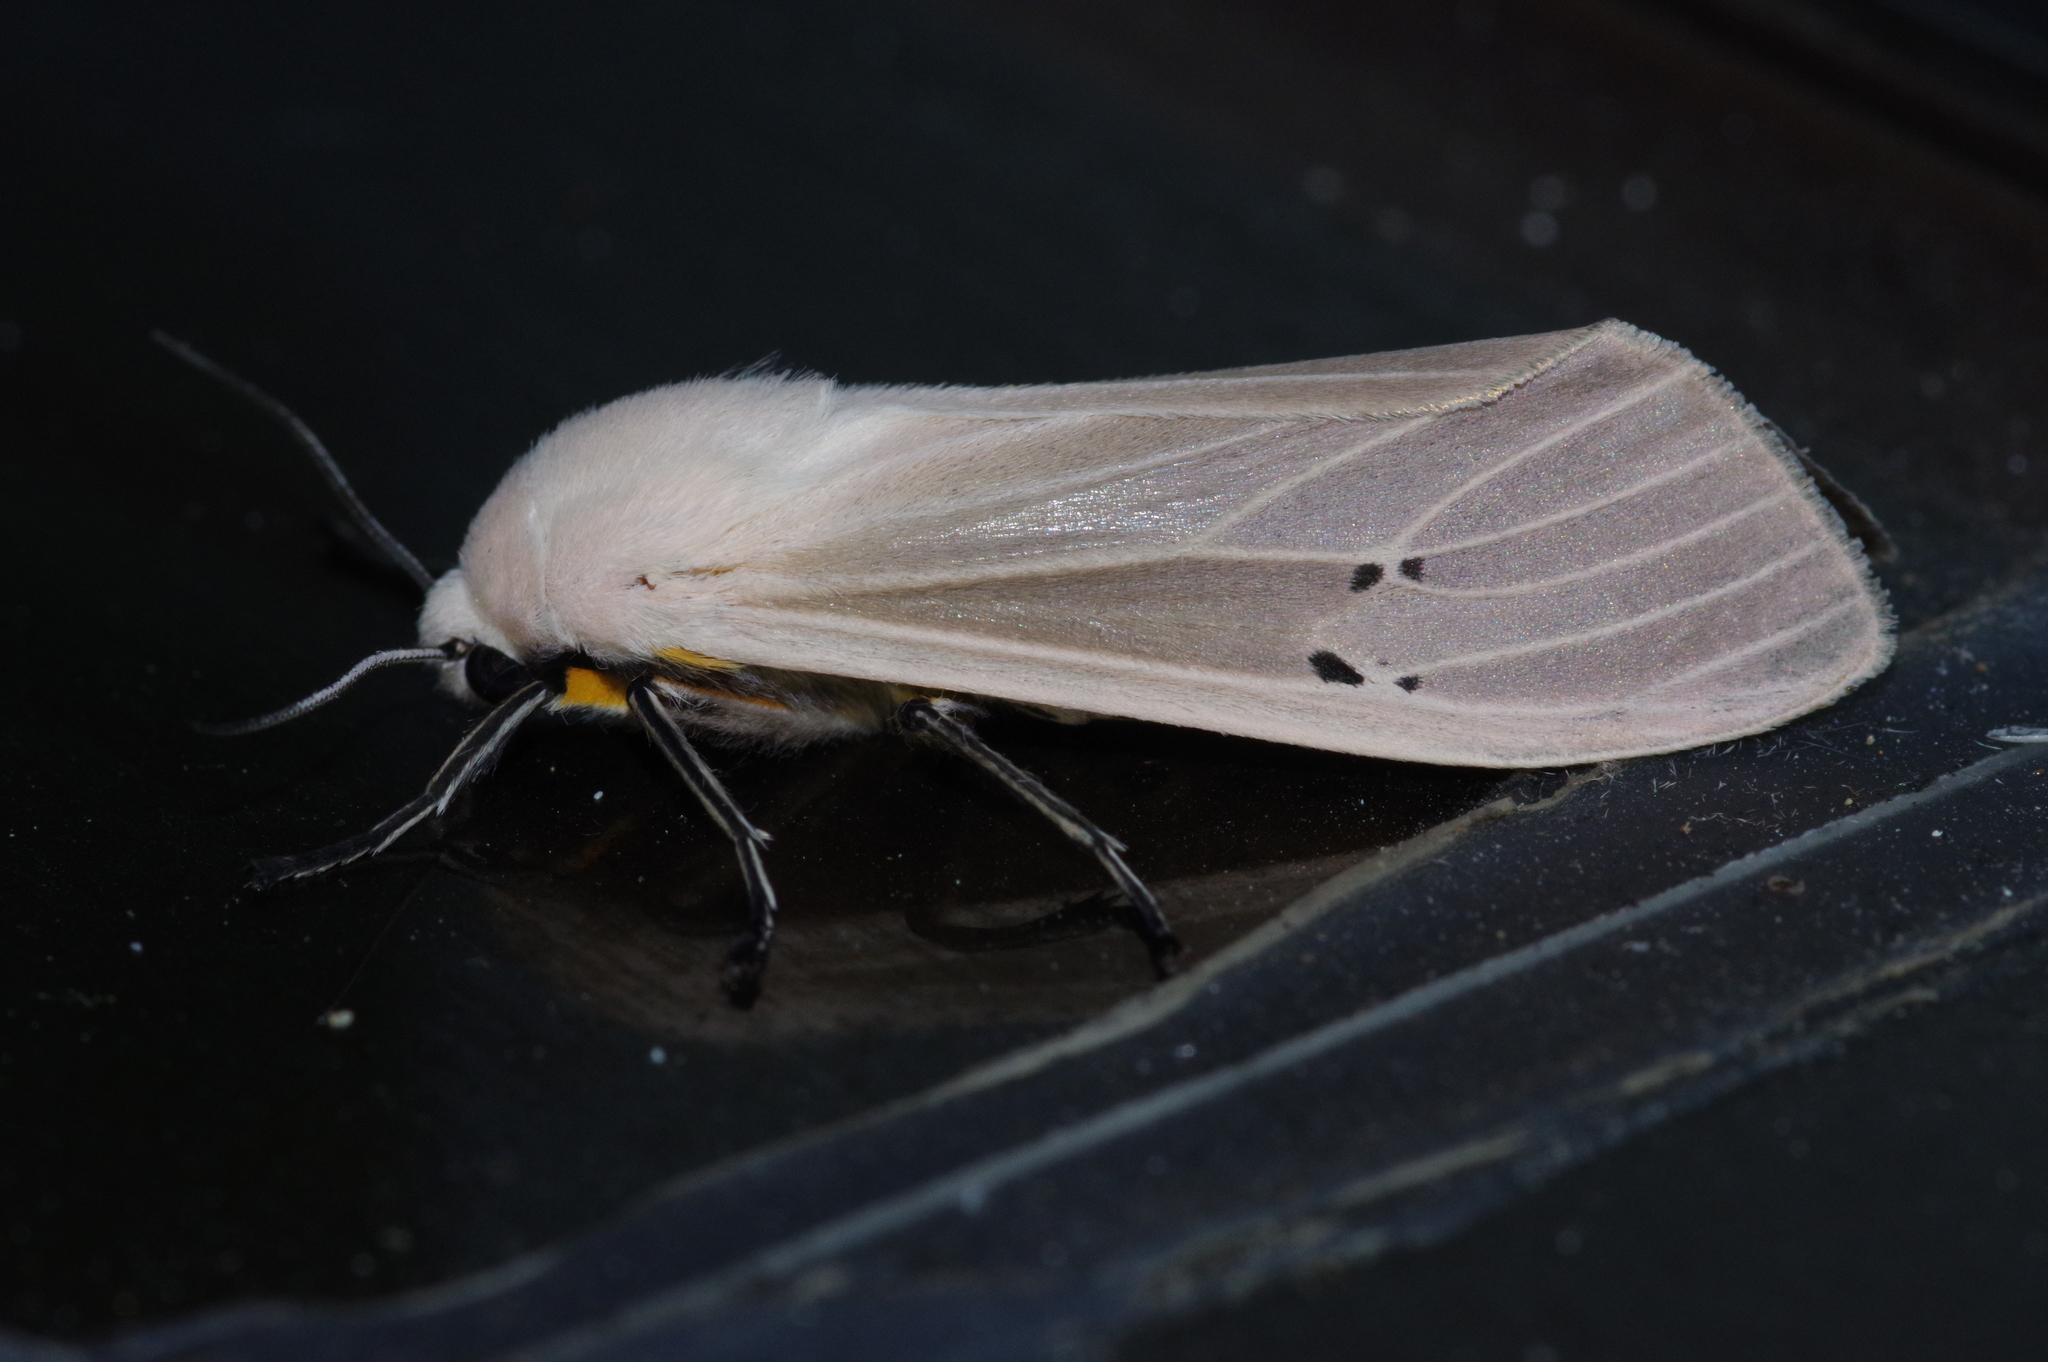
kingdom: Animalia
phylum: Arthropoda
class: Insecta
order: Lepidoptera
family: Erebidae
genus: Creatonotos
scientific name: Creatonotos transiens
